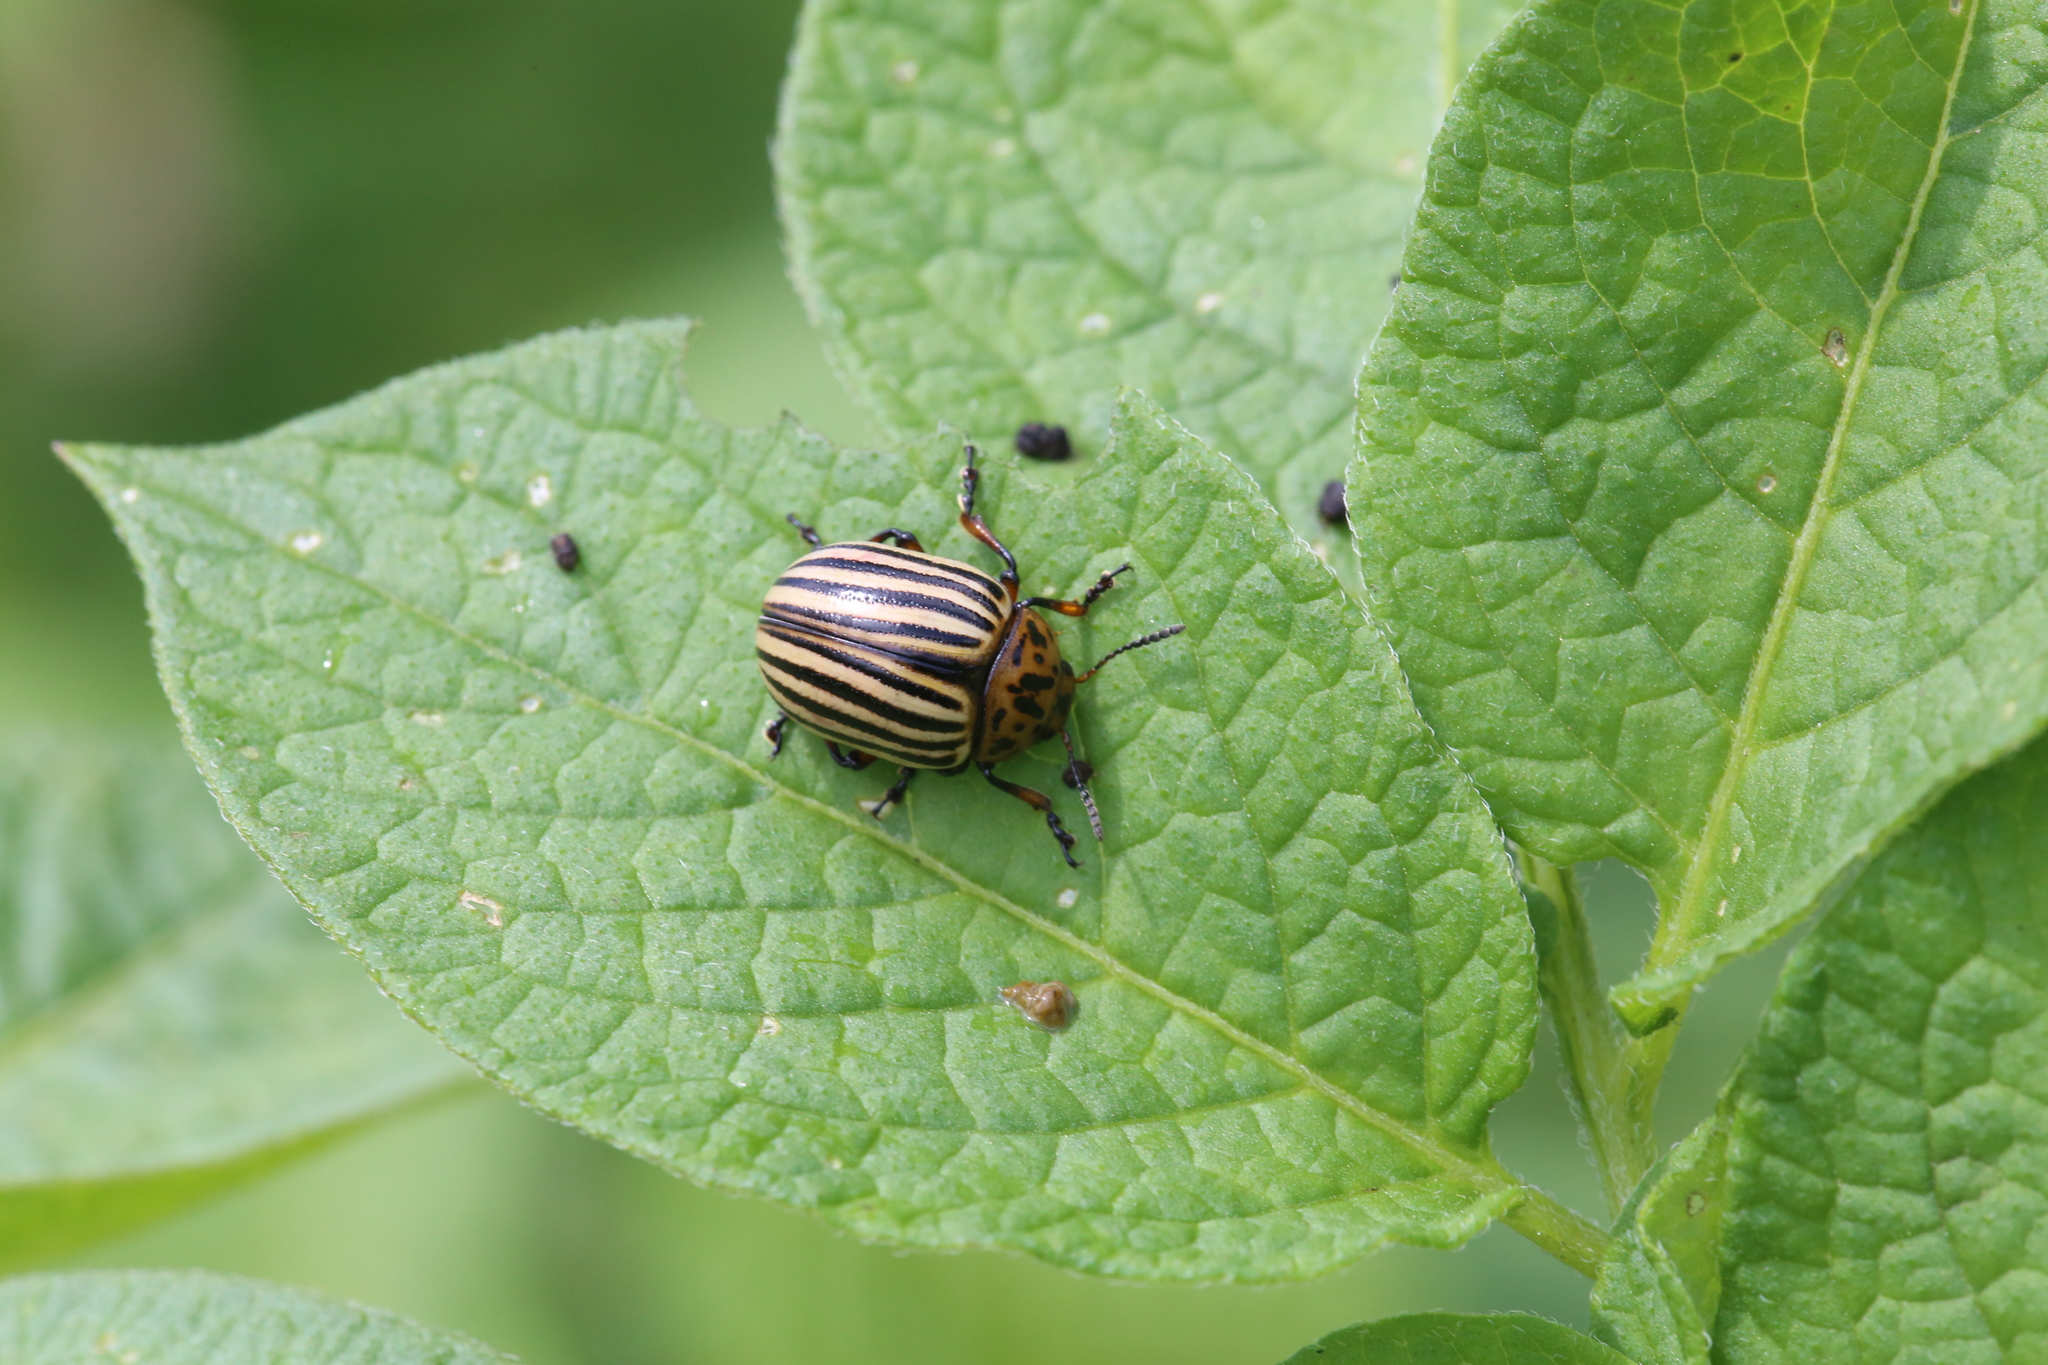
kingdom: Animalia
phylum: Arthropoda
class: Insecta
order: Coleoptera
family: Chrysomelidae
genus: Leptinotarsa
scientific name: Leptinotarsa decemlineata
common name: Colorado potato beetle
